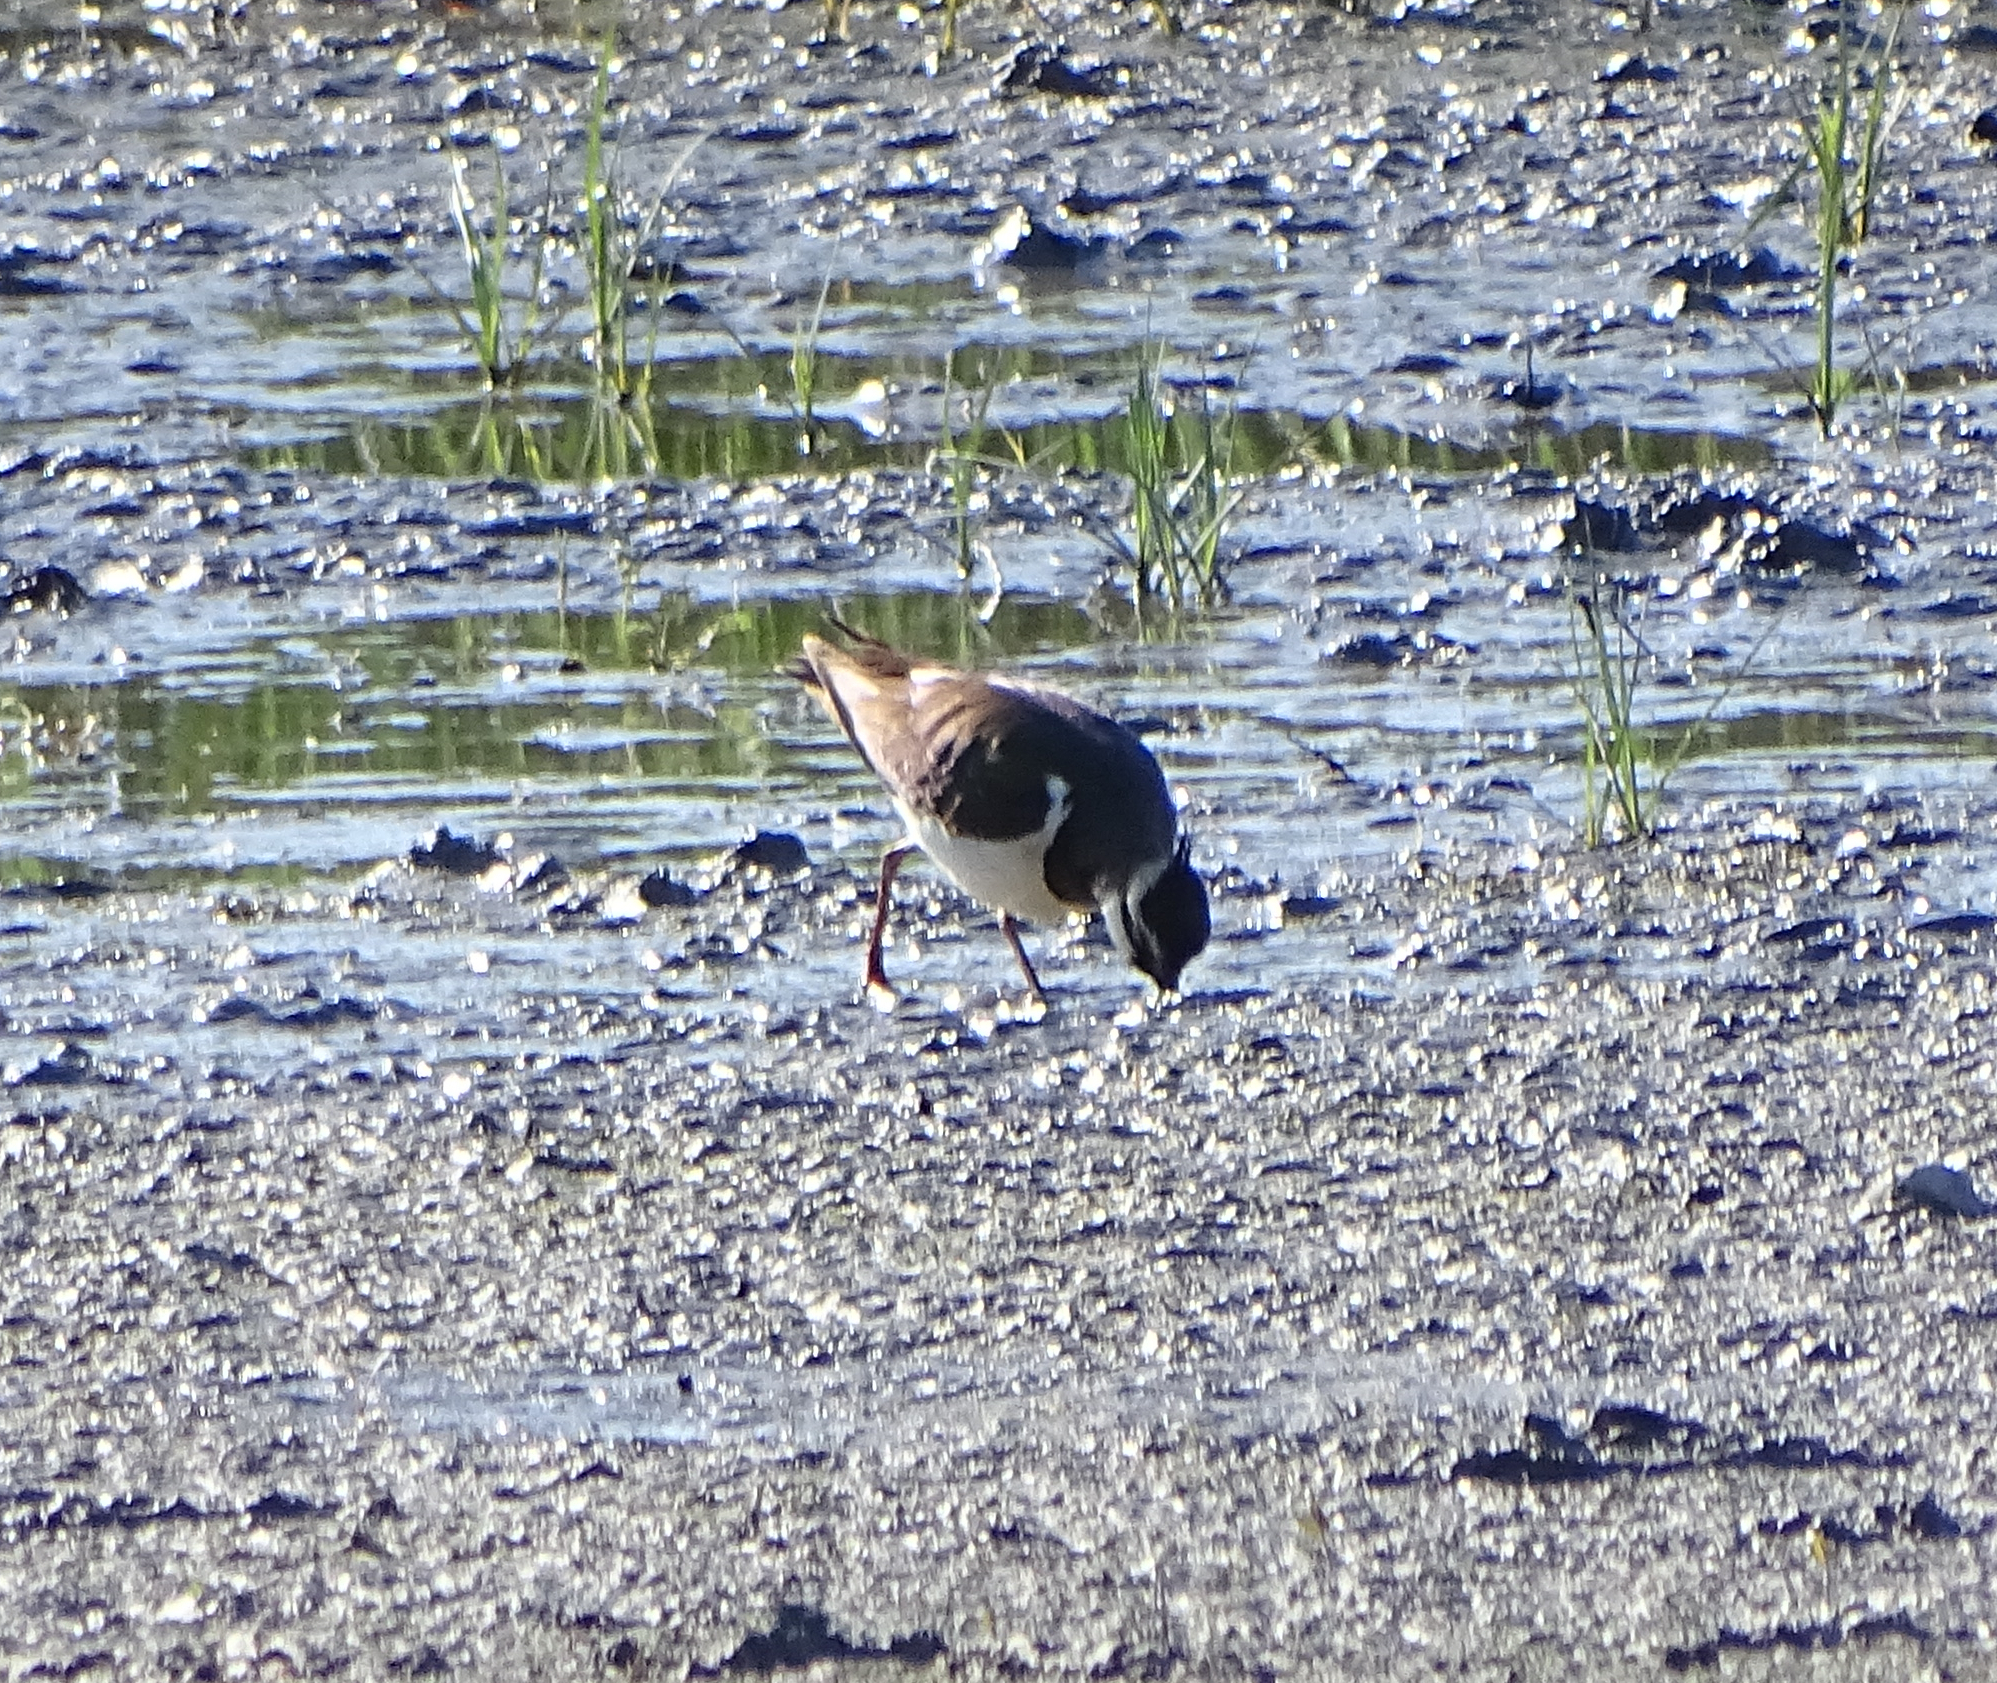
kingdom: Animalia
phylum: Chordata
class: Aves
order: Charadriiformes
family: Charadriidae
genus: Vanellus
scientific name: Vanellus vanellus
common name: Northern lapwing
